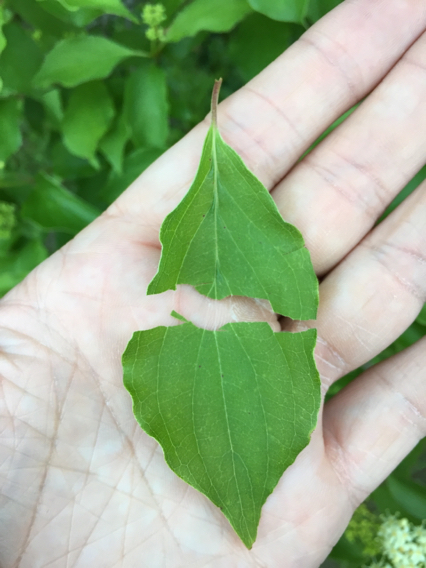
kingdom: Plantae
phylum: Tracheophyta
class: Magnoliopsida
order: Cornales
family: Cornaceae
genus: Cornus
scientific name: Cornus drummondii
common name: Rough-leaf dogwood
